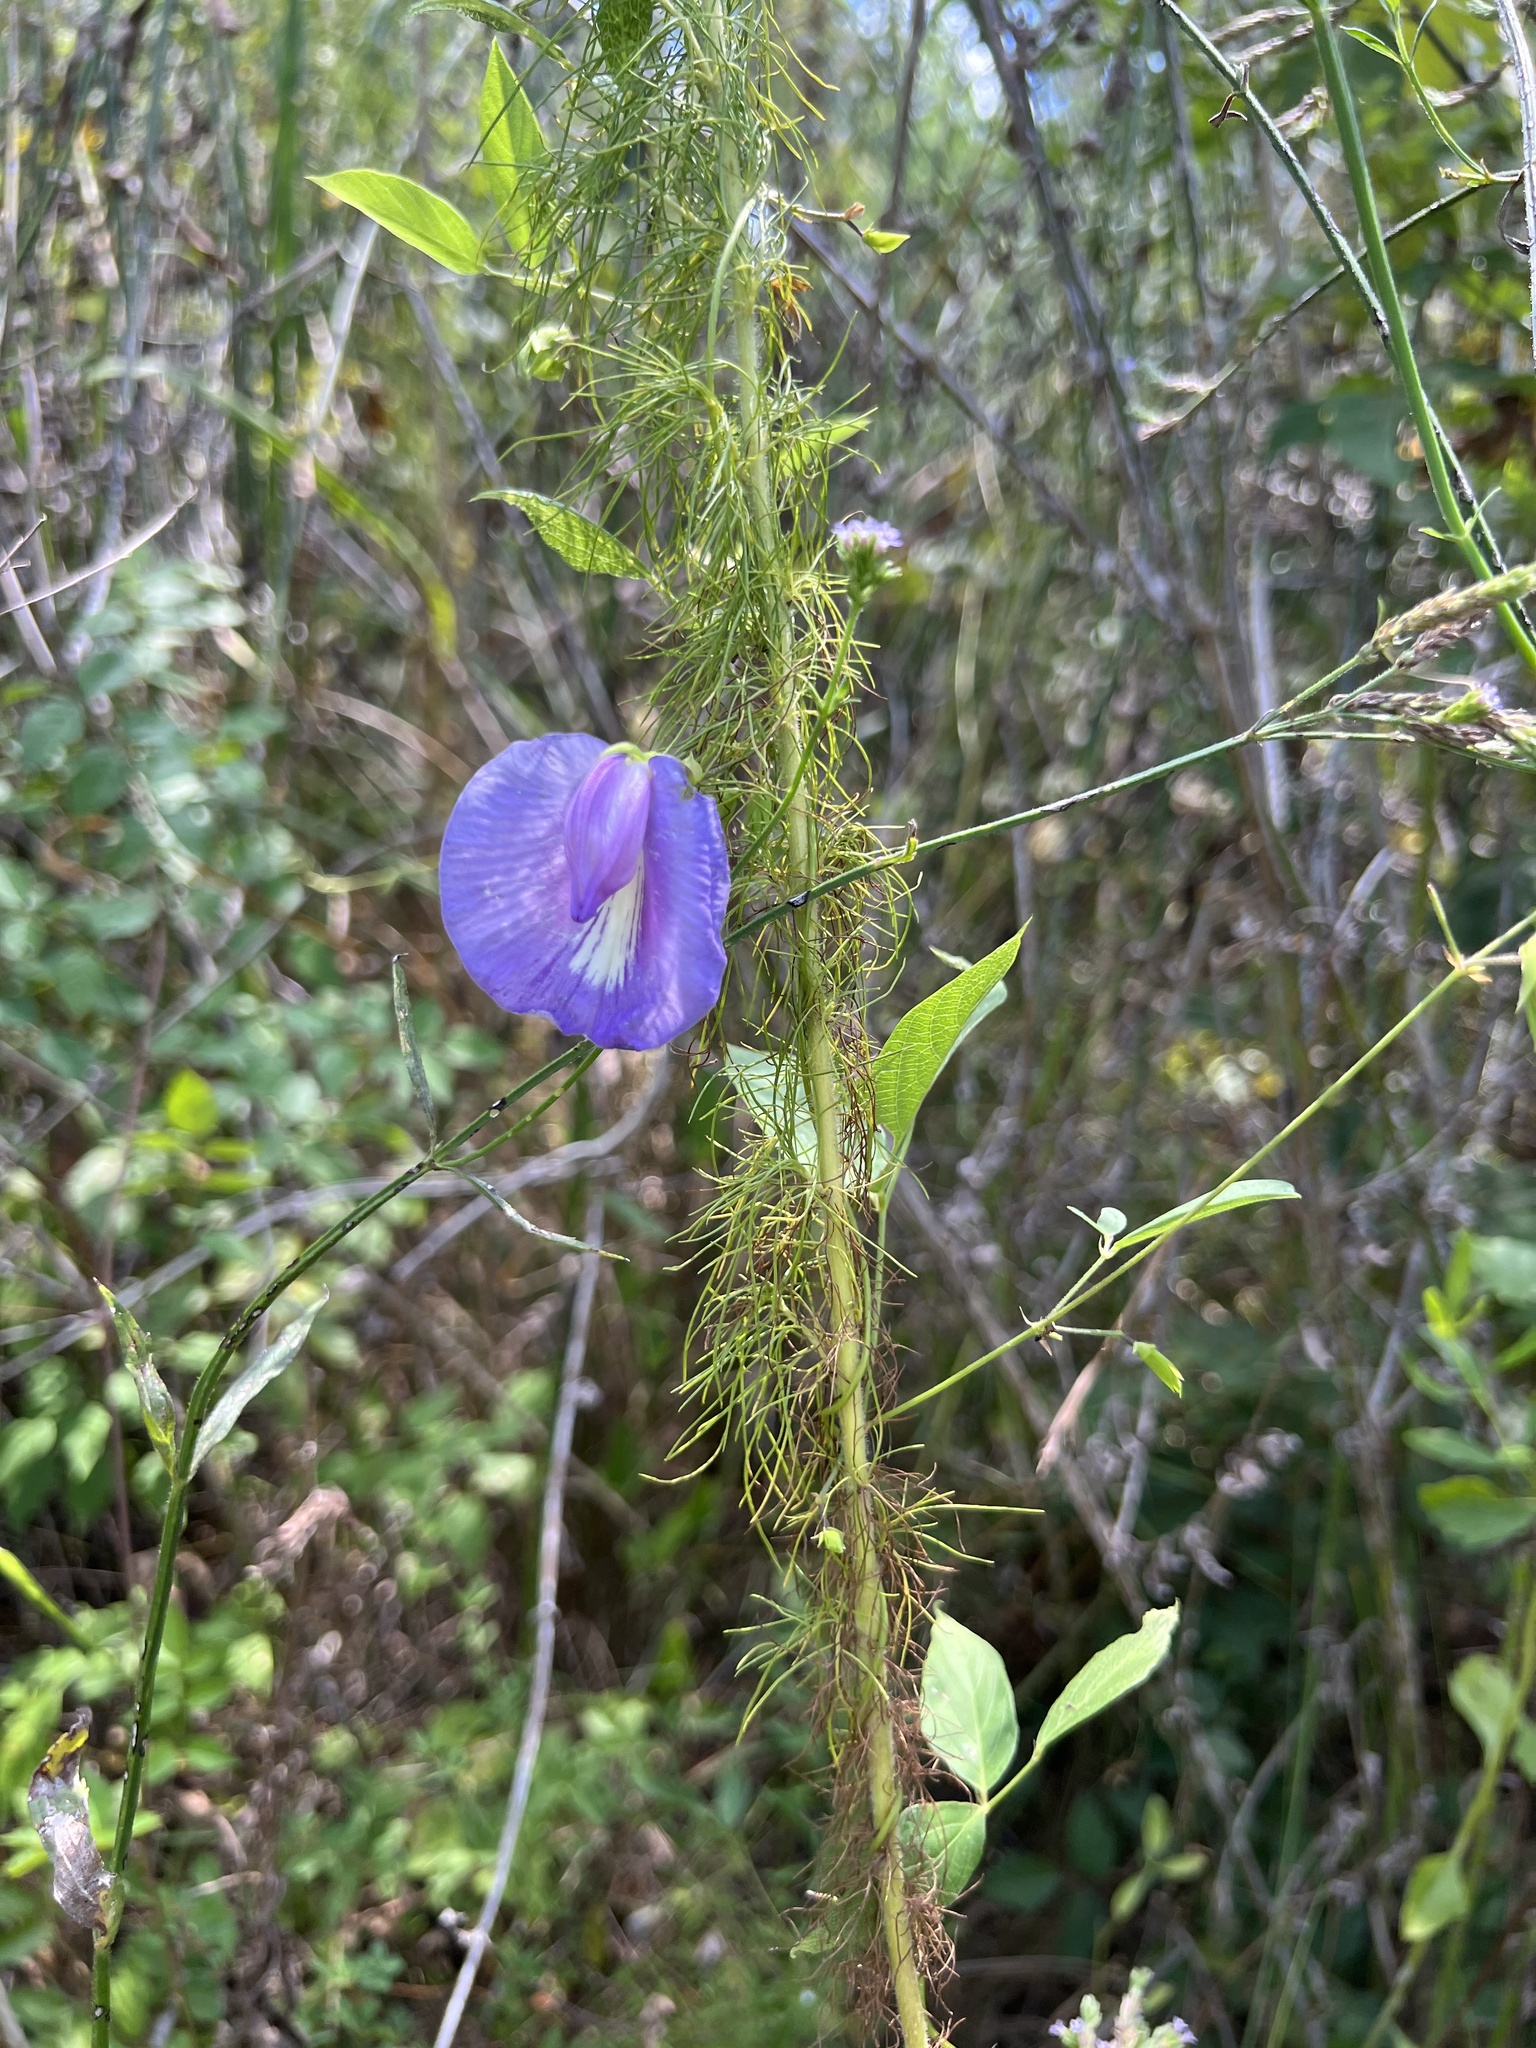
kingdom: Plantae
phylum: Tracheophyta
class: Magnoliopsida
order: Fabales
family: Fabaceae
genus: Centrosema
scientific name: Centrosema virginianum
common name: Butterfly-pea
